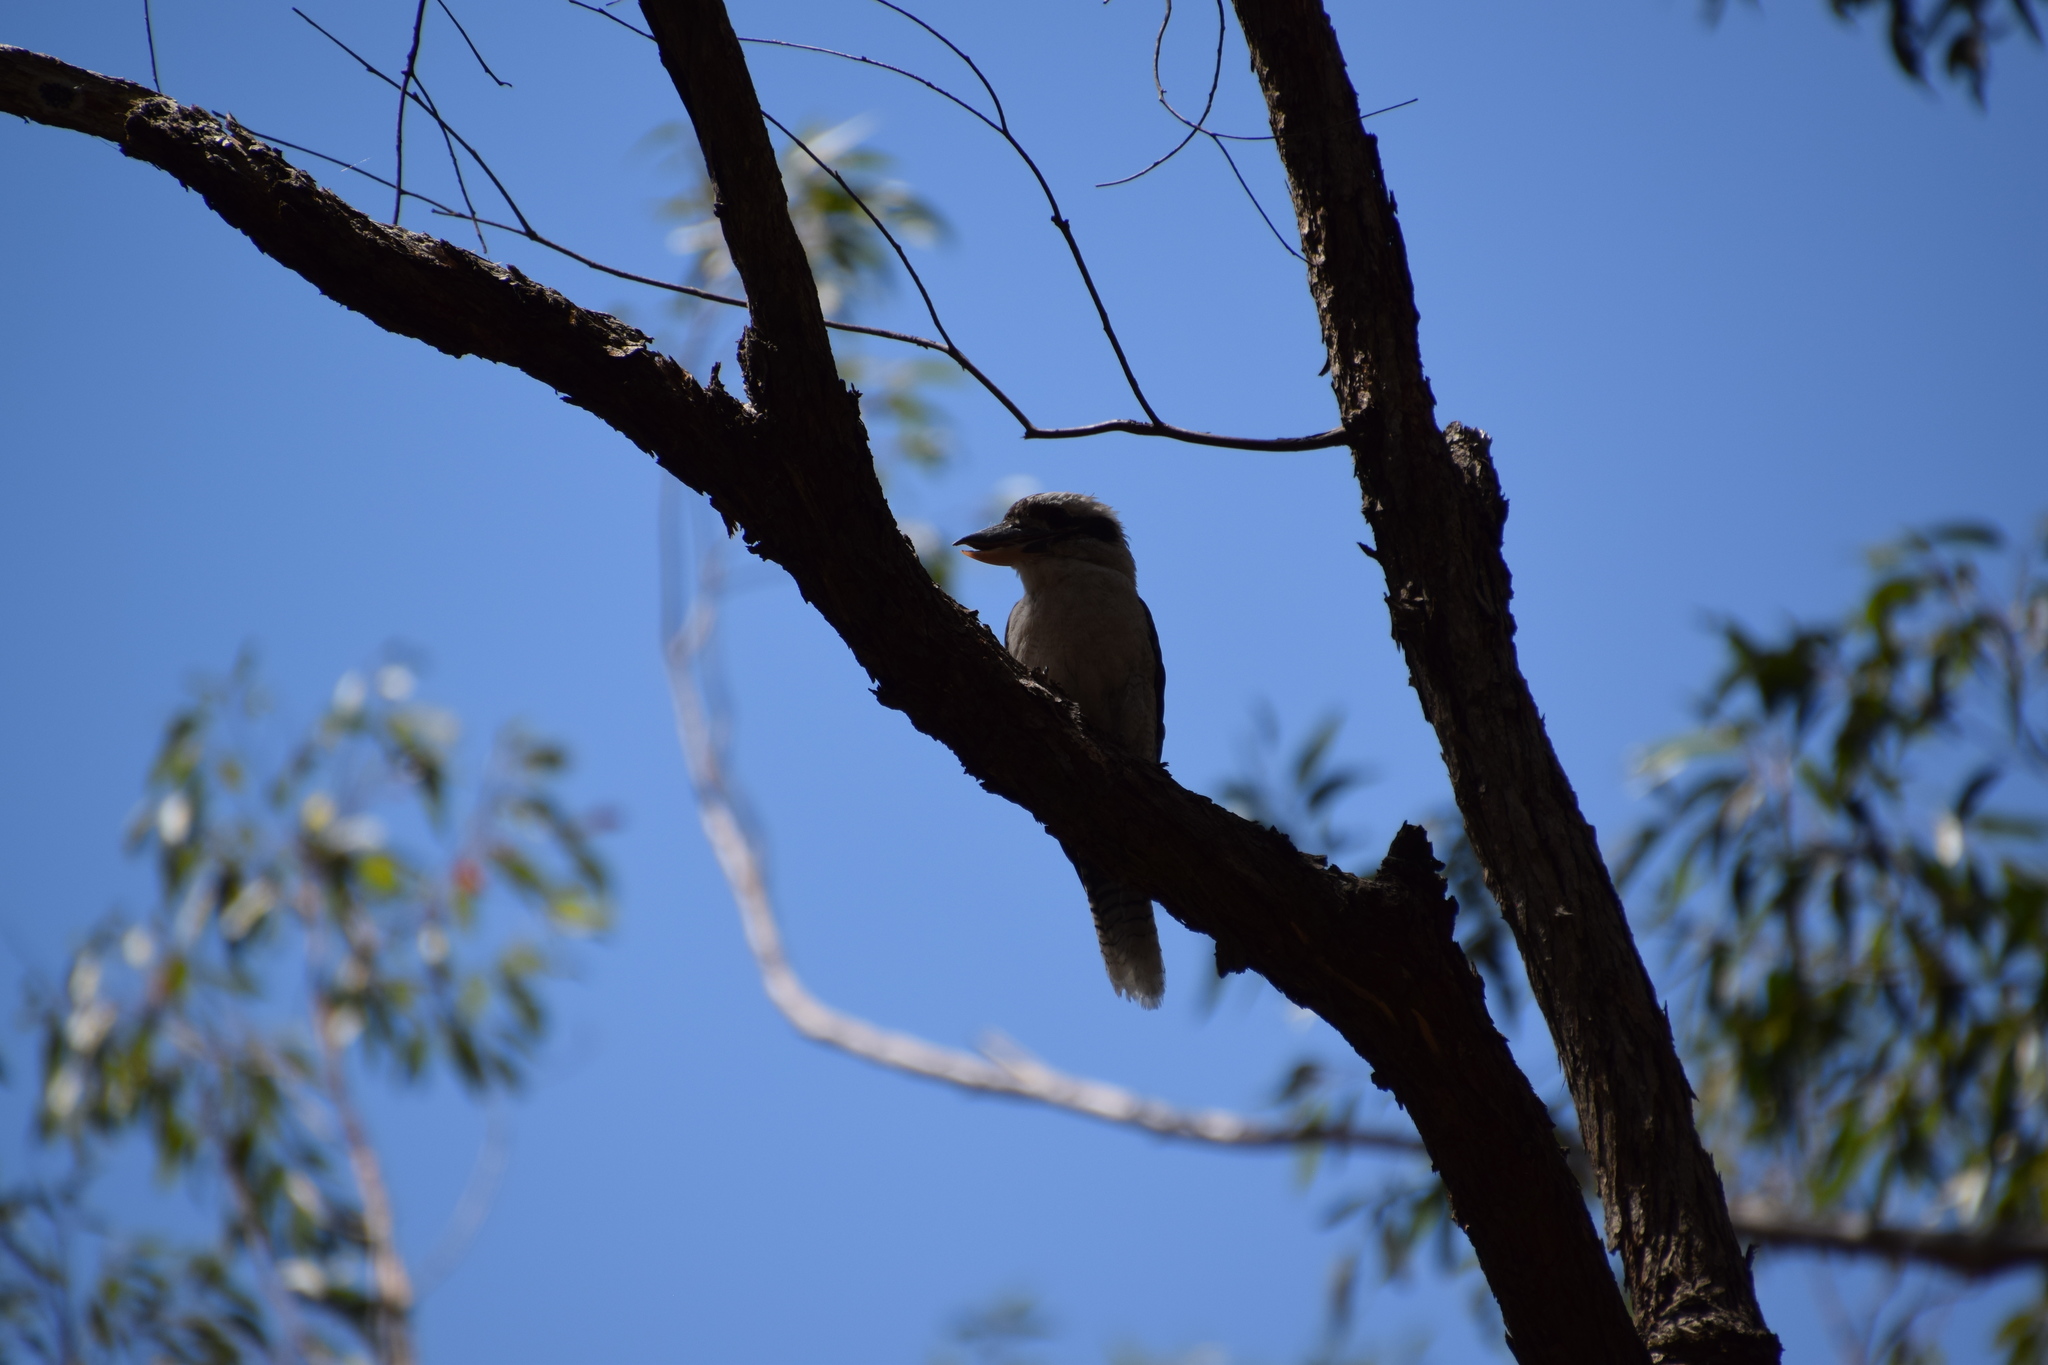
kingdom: Animalia
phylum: Chordata
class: Aves
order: Coraciiformes
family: Alcedinidae
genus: Dacelo
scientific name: Dacelo novaeguineae
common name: Laughing kookaburra
